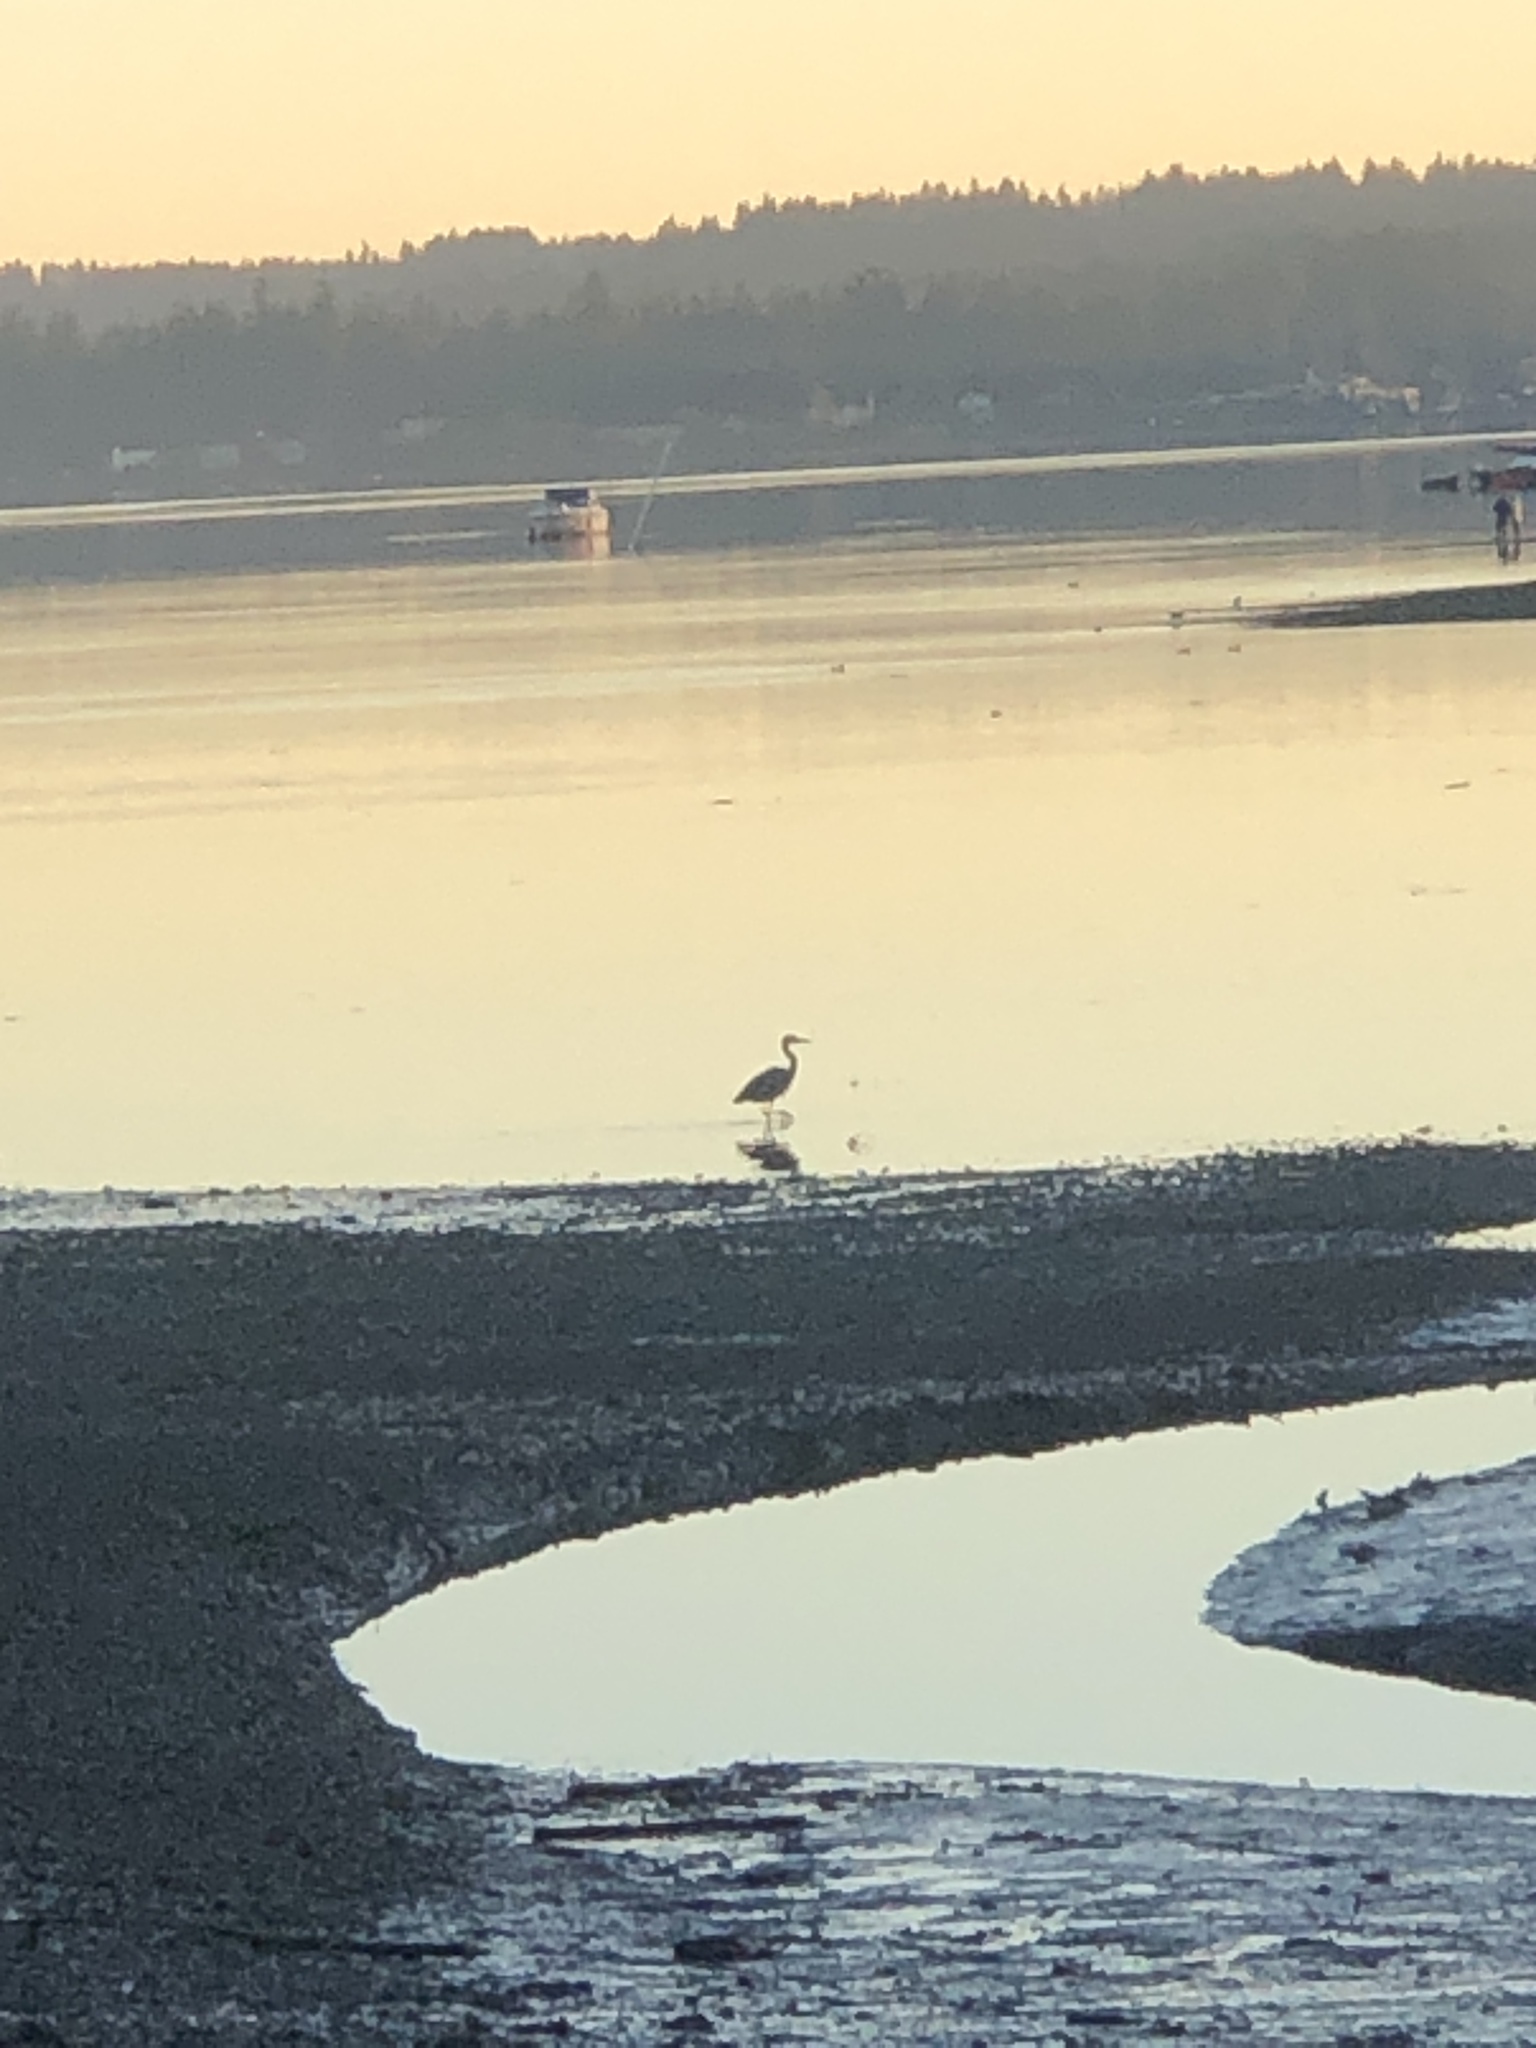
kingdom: Animalia
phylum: Chordata
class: Aves
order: Pelecaniformes
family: Ardeidae
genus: Ardea
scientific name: Ardea herodias
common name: Great blue heron
